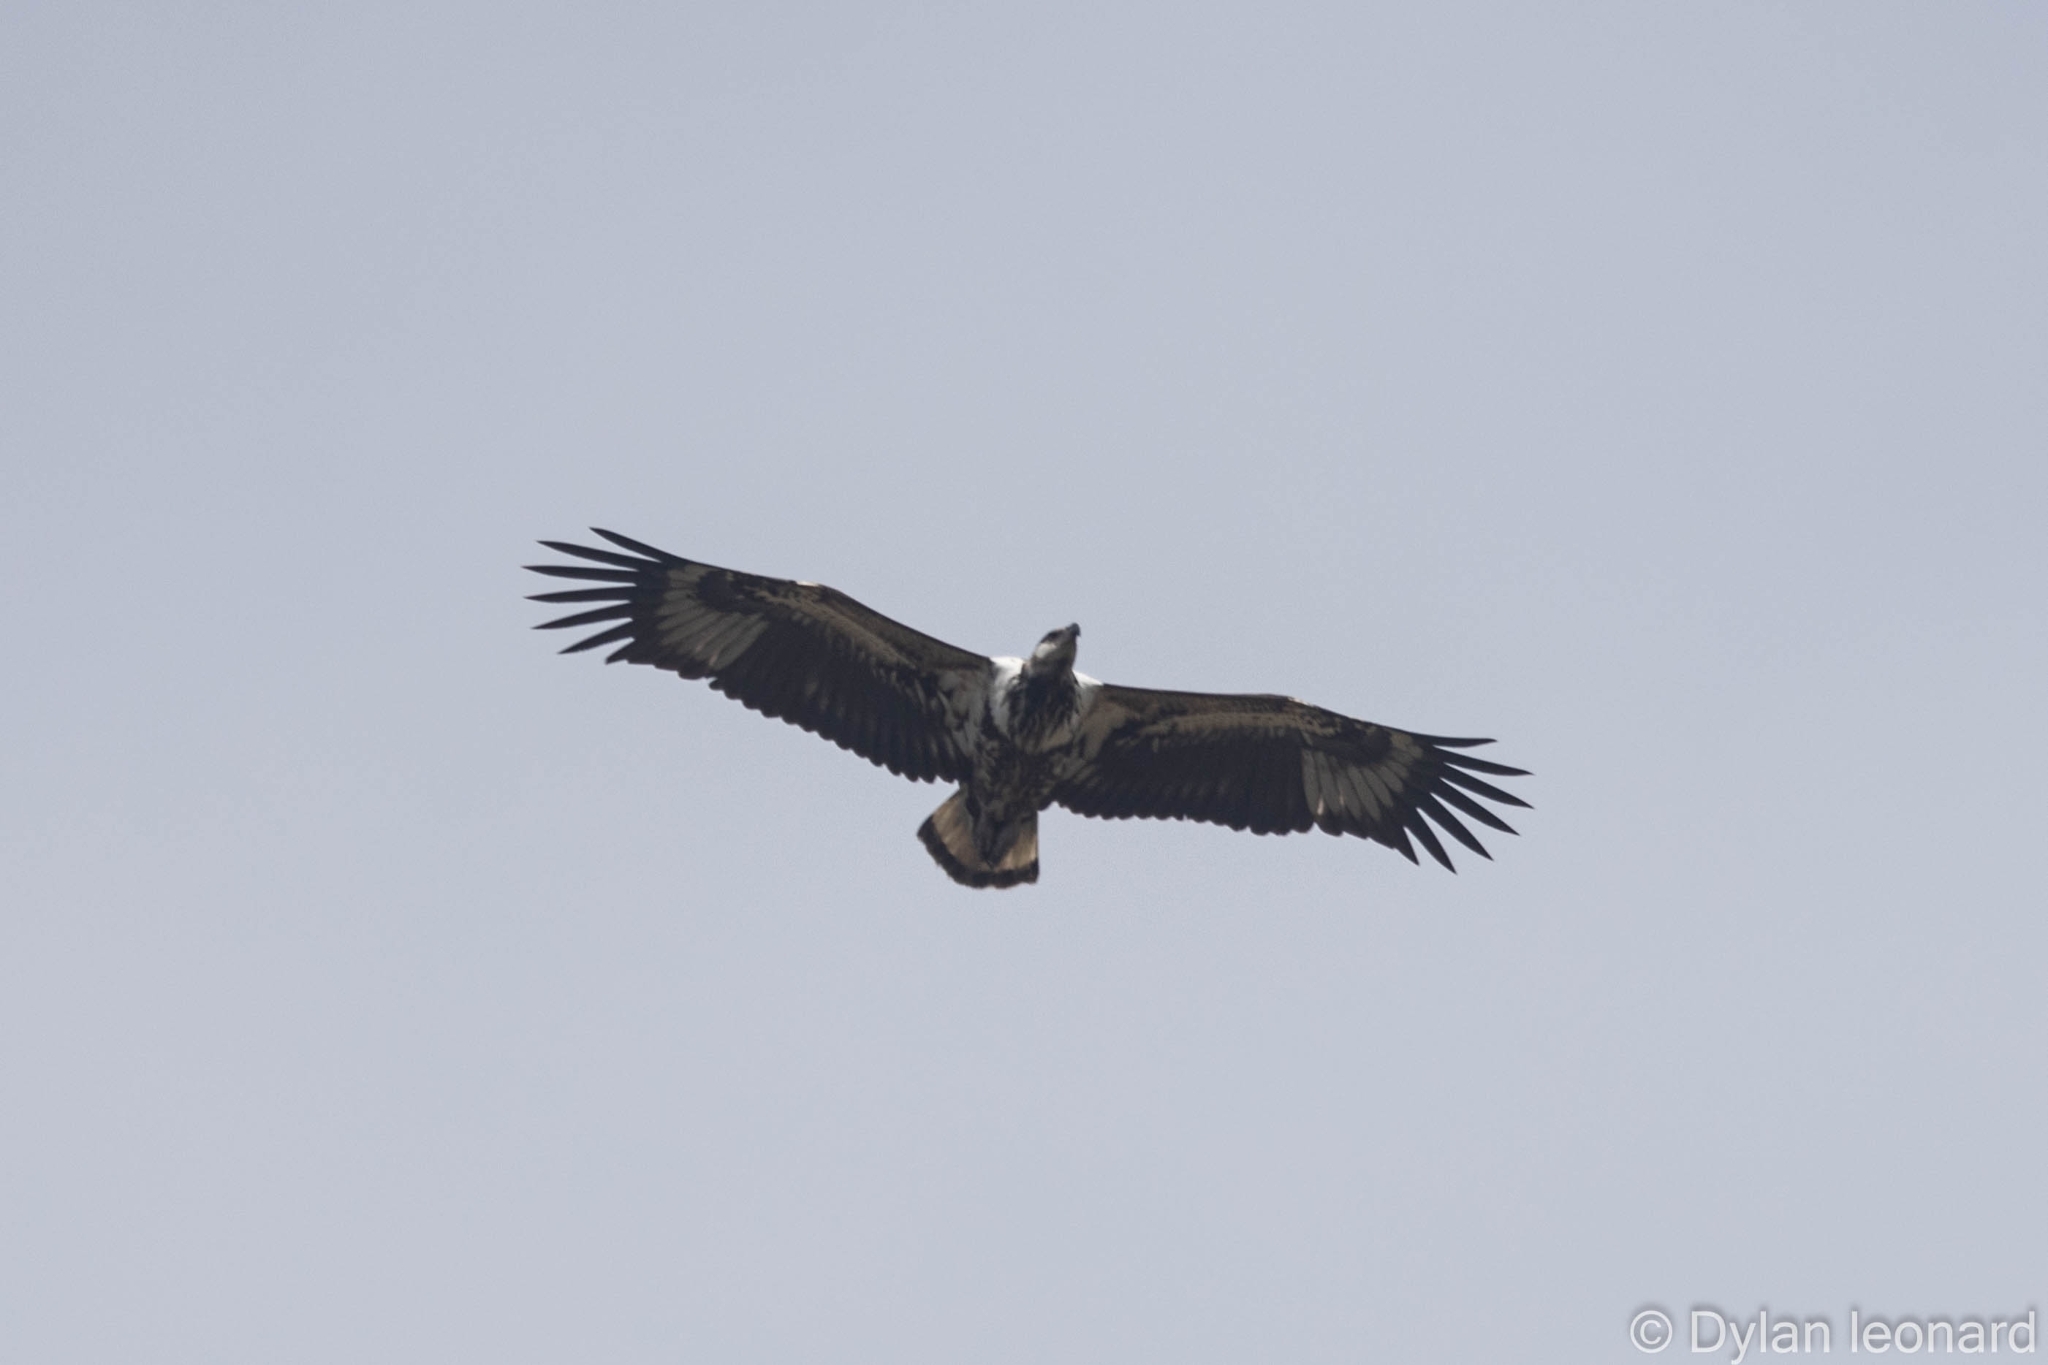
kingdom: Animalia
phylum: Chordata
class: Aves
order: Accipitriformes
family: Accipitridae
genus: Haliaeetus
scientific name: Haliaeetus vocifer
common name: African fish eagle
